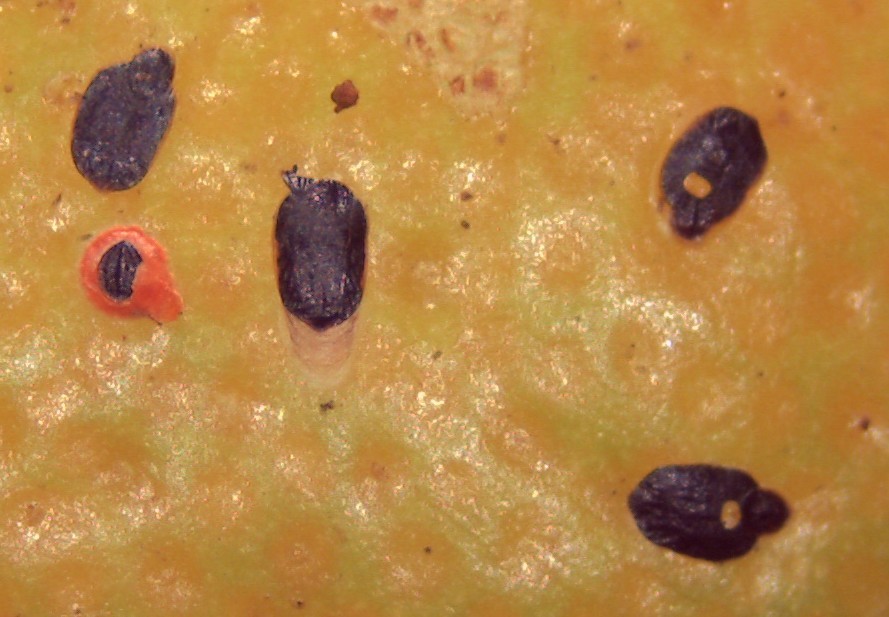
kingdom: Animalia
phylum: Arthropoda
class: Insecta
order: Hemiptera
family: Diaspididae
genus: Parlatoria
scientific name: Parlatoria ziziphi
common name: Mediterranean scale
